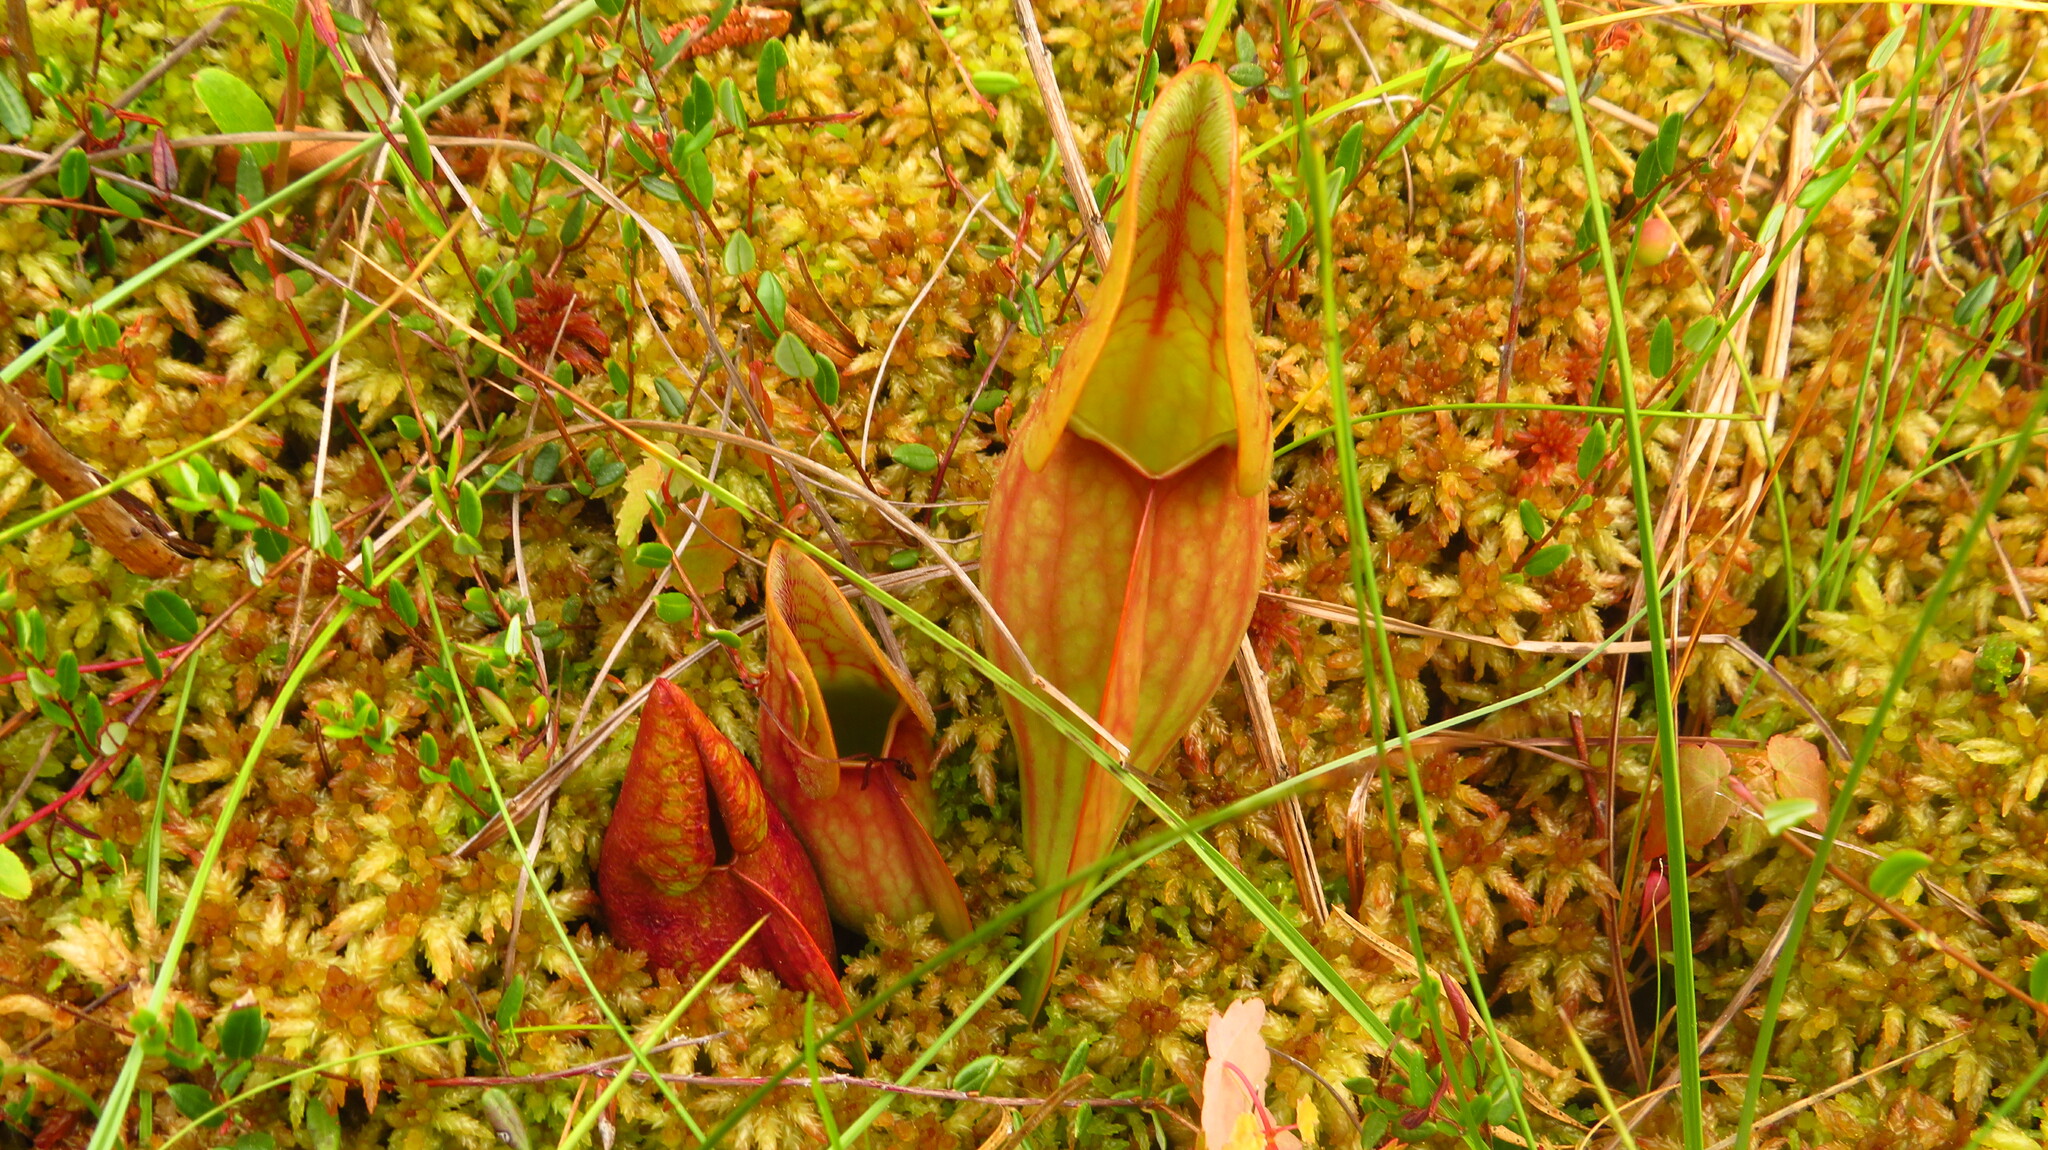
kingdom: Plantae
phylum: Tracheophyta
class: Magnoliopsida
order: Ericales
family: Ericaceae
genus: Vaccinium
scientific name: Vaccinium oxycoccos
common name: Cranberry
